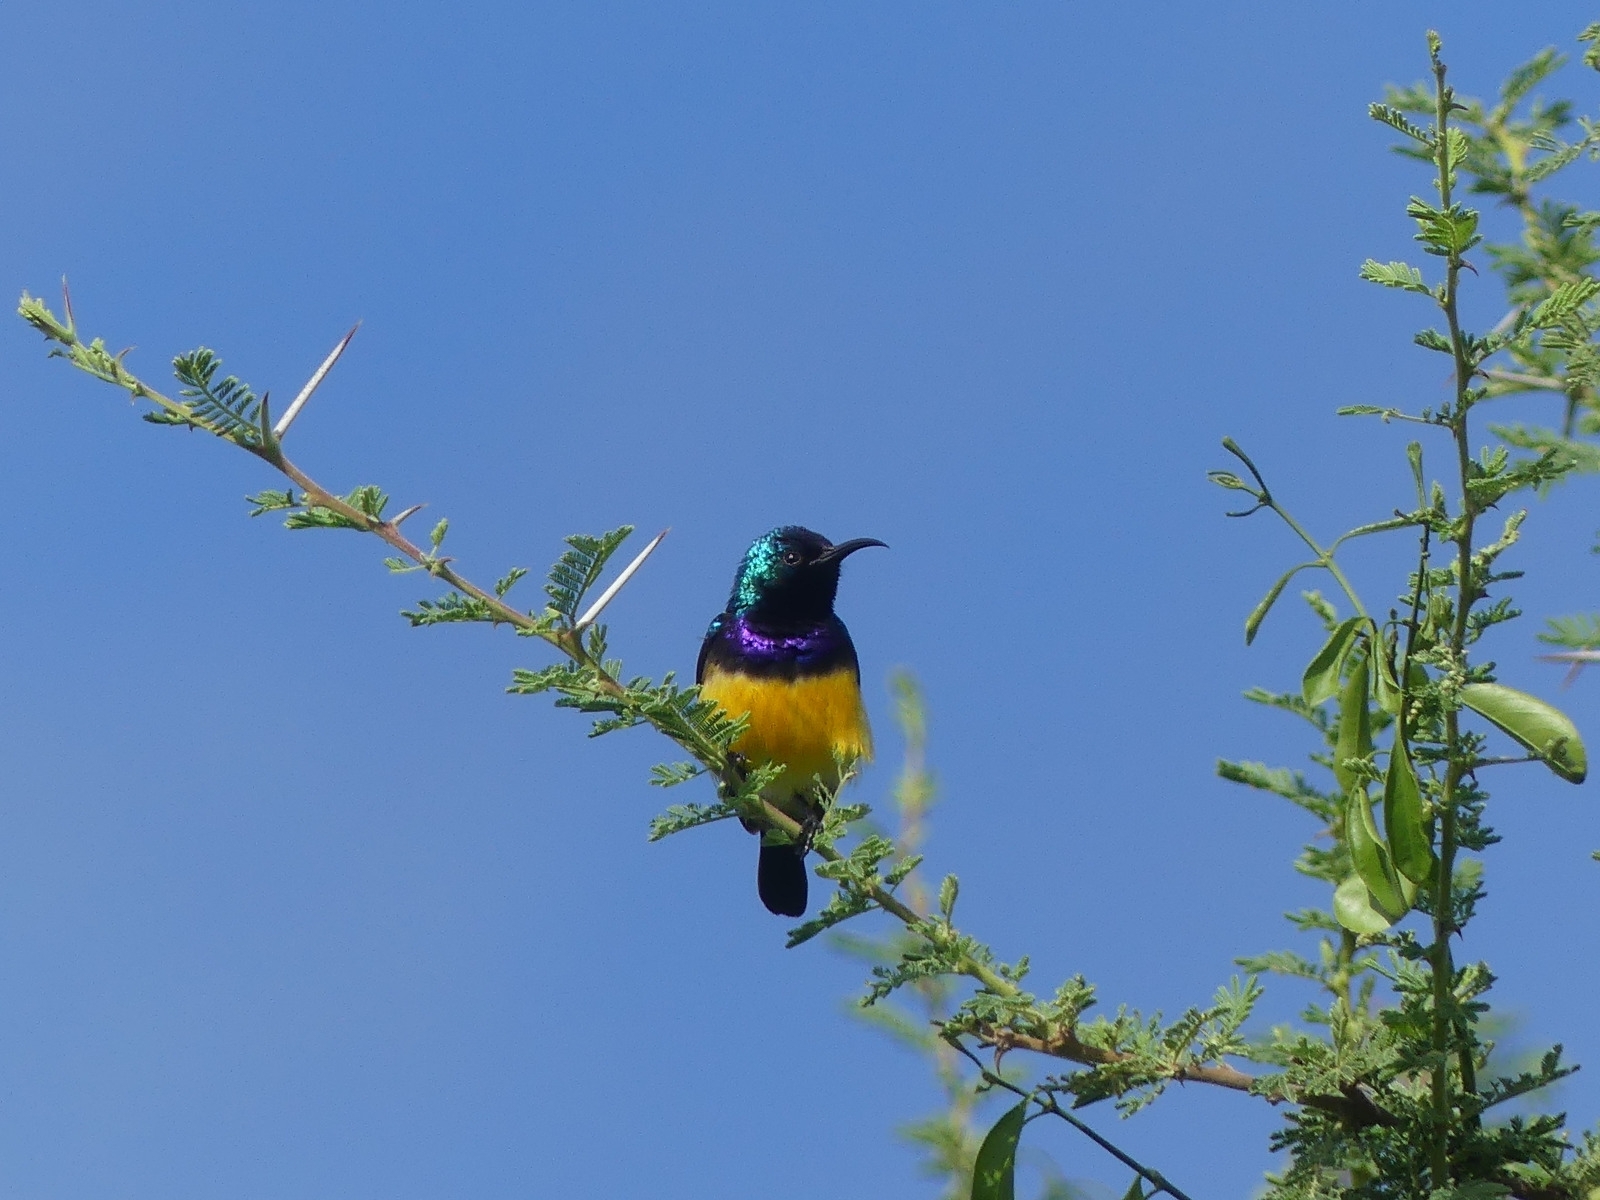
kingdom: Animalia
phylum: Chordata
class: Aves
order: Passeriformes
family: Nectariniidae
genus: Cinnyris
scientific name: Cinnyris venustus
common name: Variable sunbird
